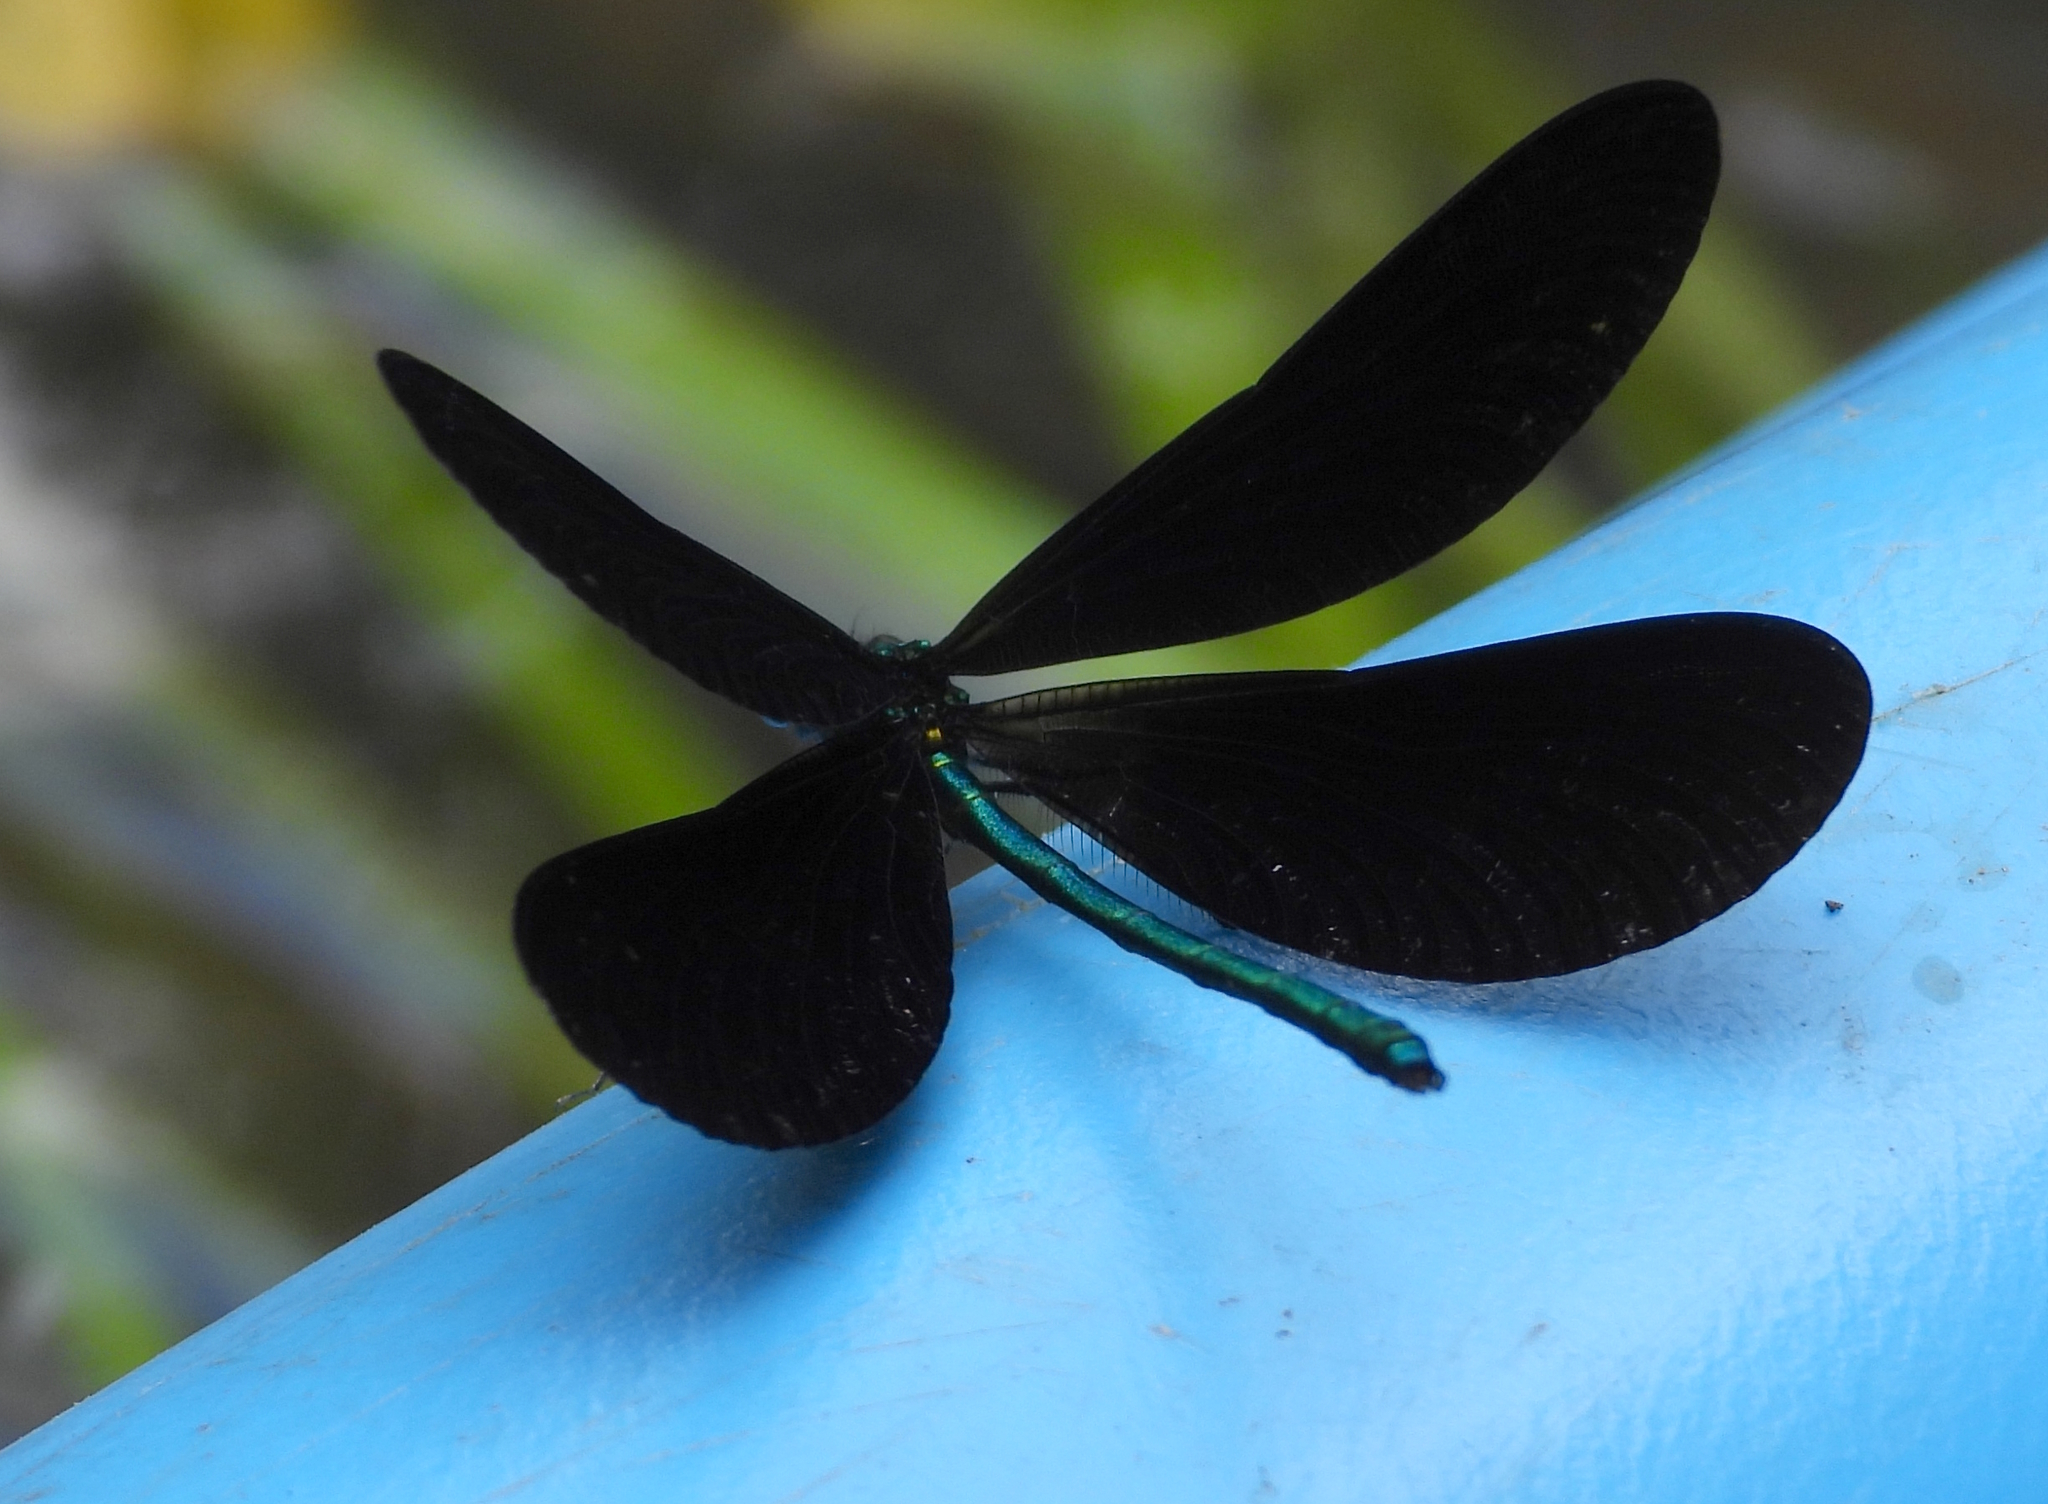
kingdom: Animalia
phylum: Arthropoda
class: Insecta
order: Odonata
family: Calopterygidae
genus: Calopteryx
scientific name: Calopteryx maculata
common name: Ebony jewelwing
